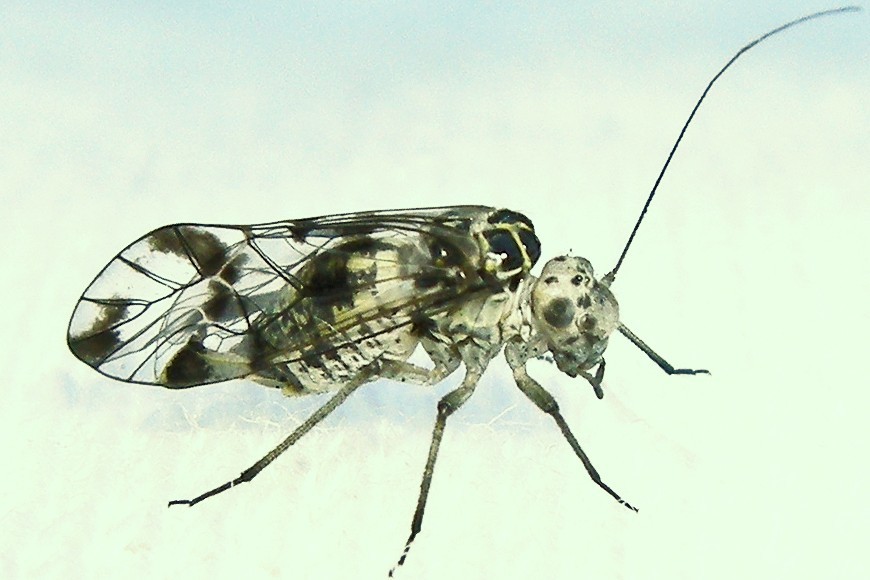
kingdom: Animalia
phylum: Arthropoda
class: Insecta
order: Psocodea
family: Psocidae
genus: Metylophorus
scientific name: Metylophorus novaescotiae
